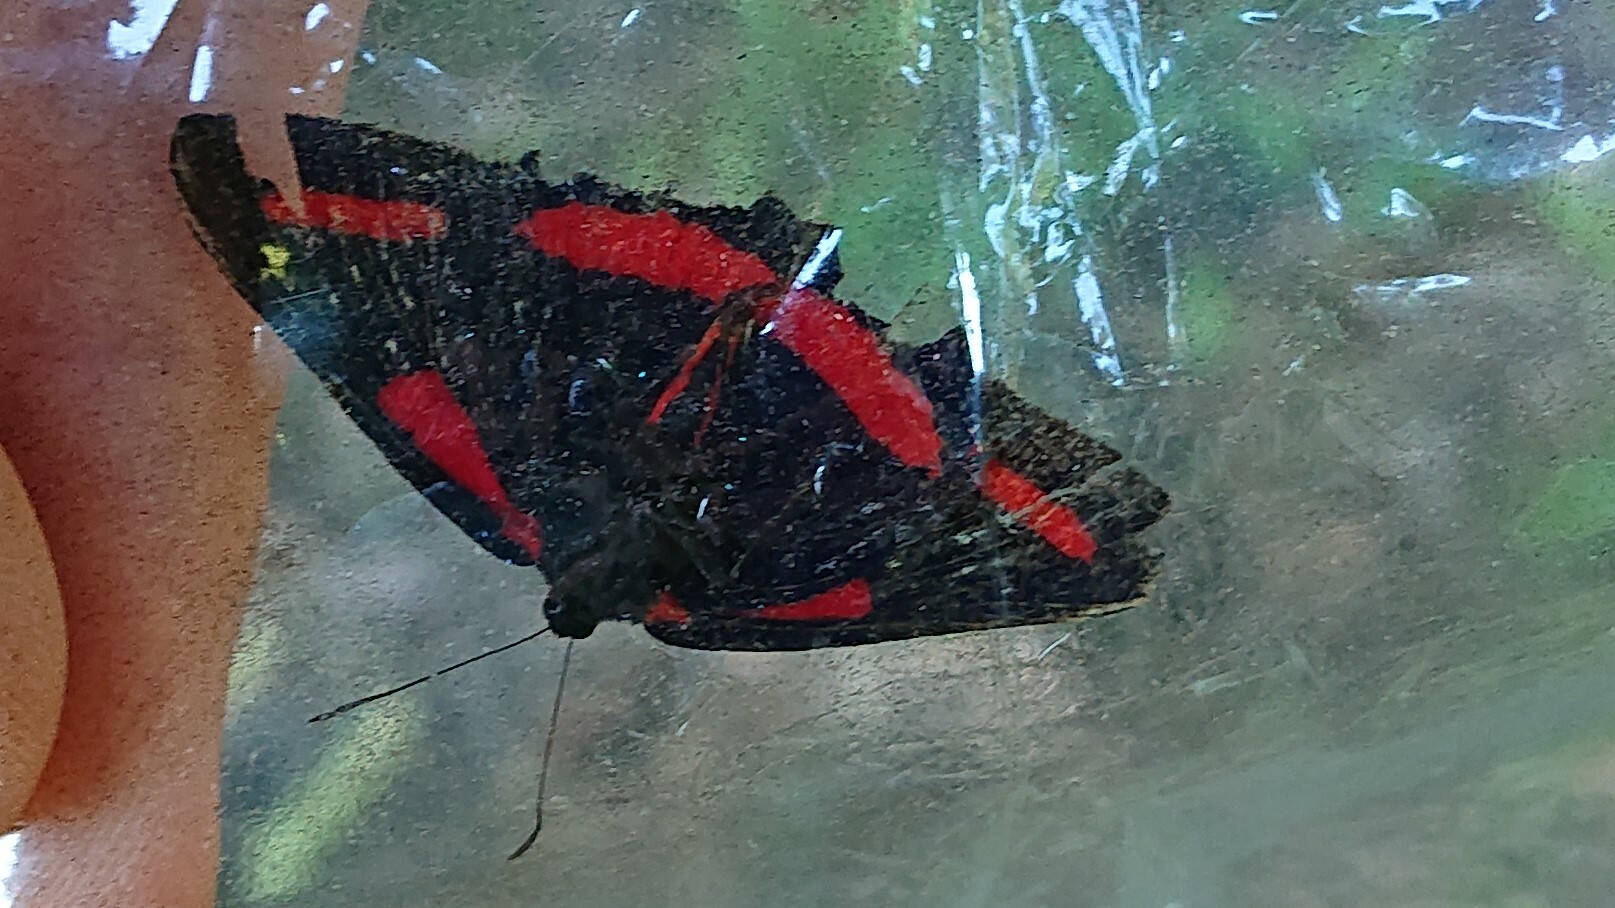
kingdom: Animalia
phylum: Arthropoda
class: Insecta
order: Lepidoptera
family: Riodinidae
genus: Amarynthis
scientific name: Amarynthis meneria
